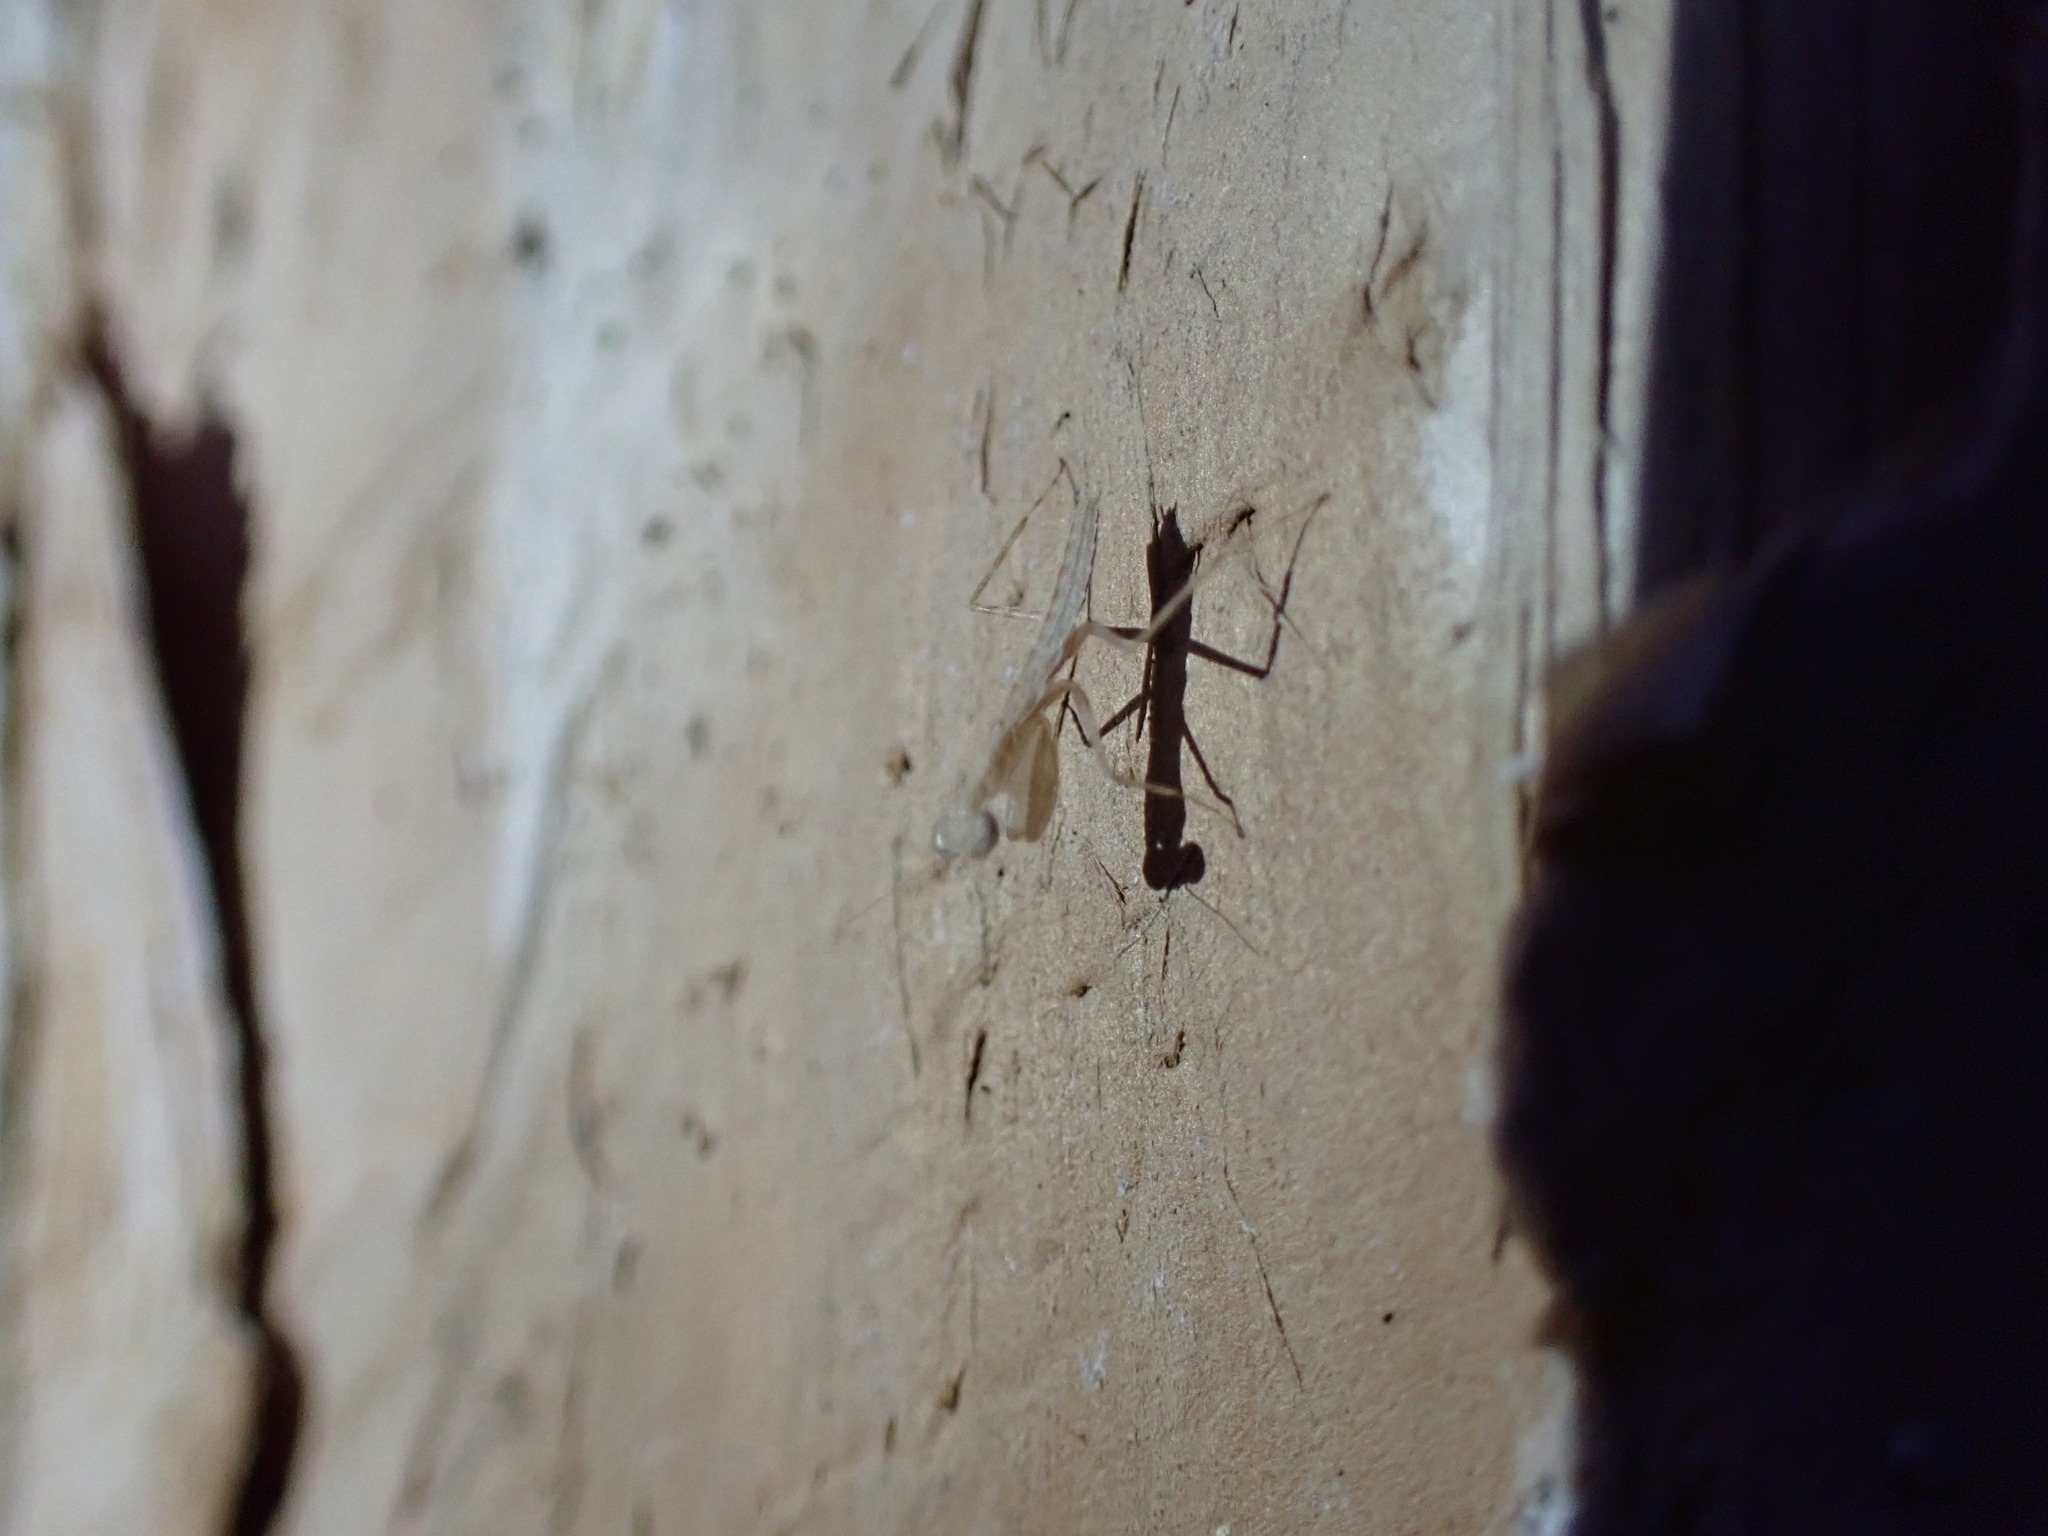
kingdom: Animalia
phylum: Arthropoda
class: Insecta
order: Mantodea
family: Nanomantidae
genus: Ima
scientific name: Ima fusca
